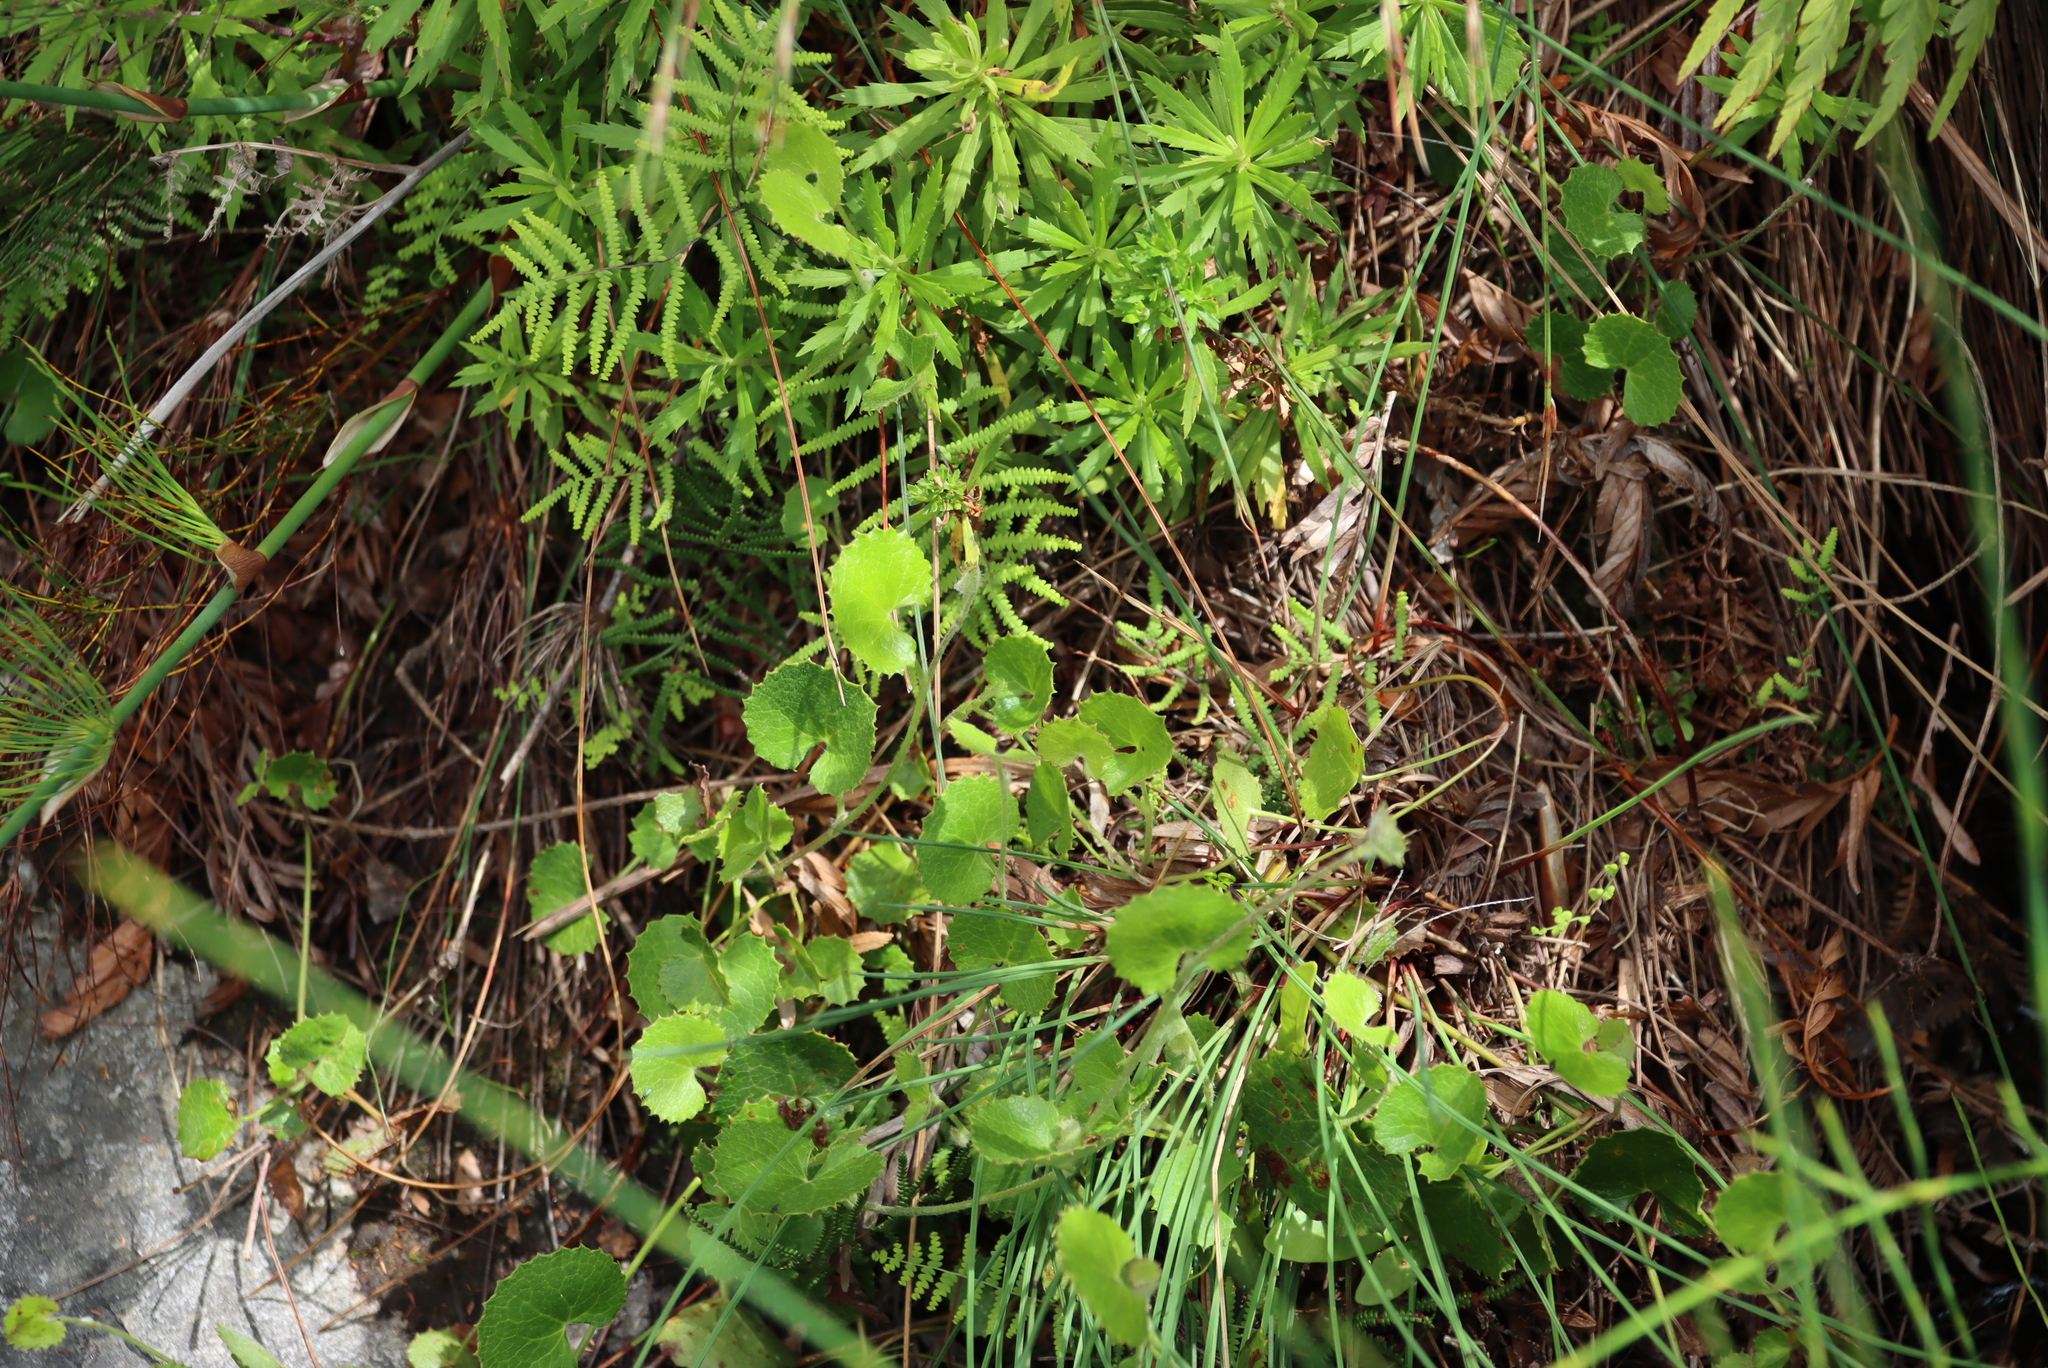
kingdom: Plantae
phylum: Tracheophyta
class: Magnoliopsida
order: Apiales
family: Apiaceae
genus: Centella
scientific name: Centella eriantha
